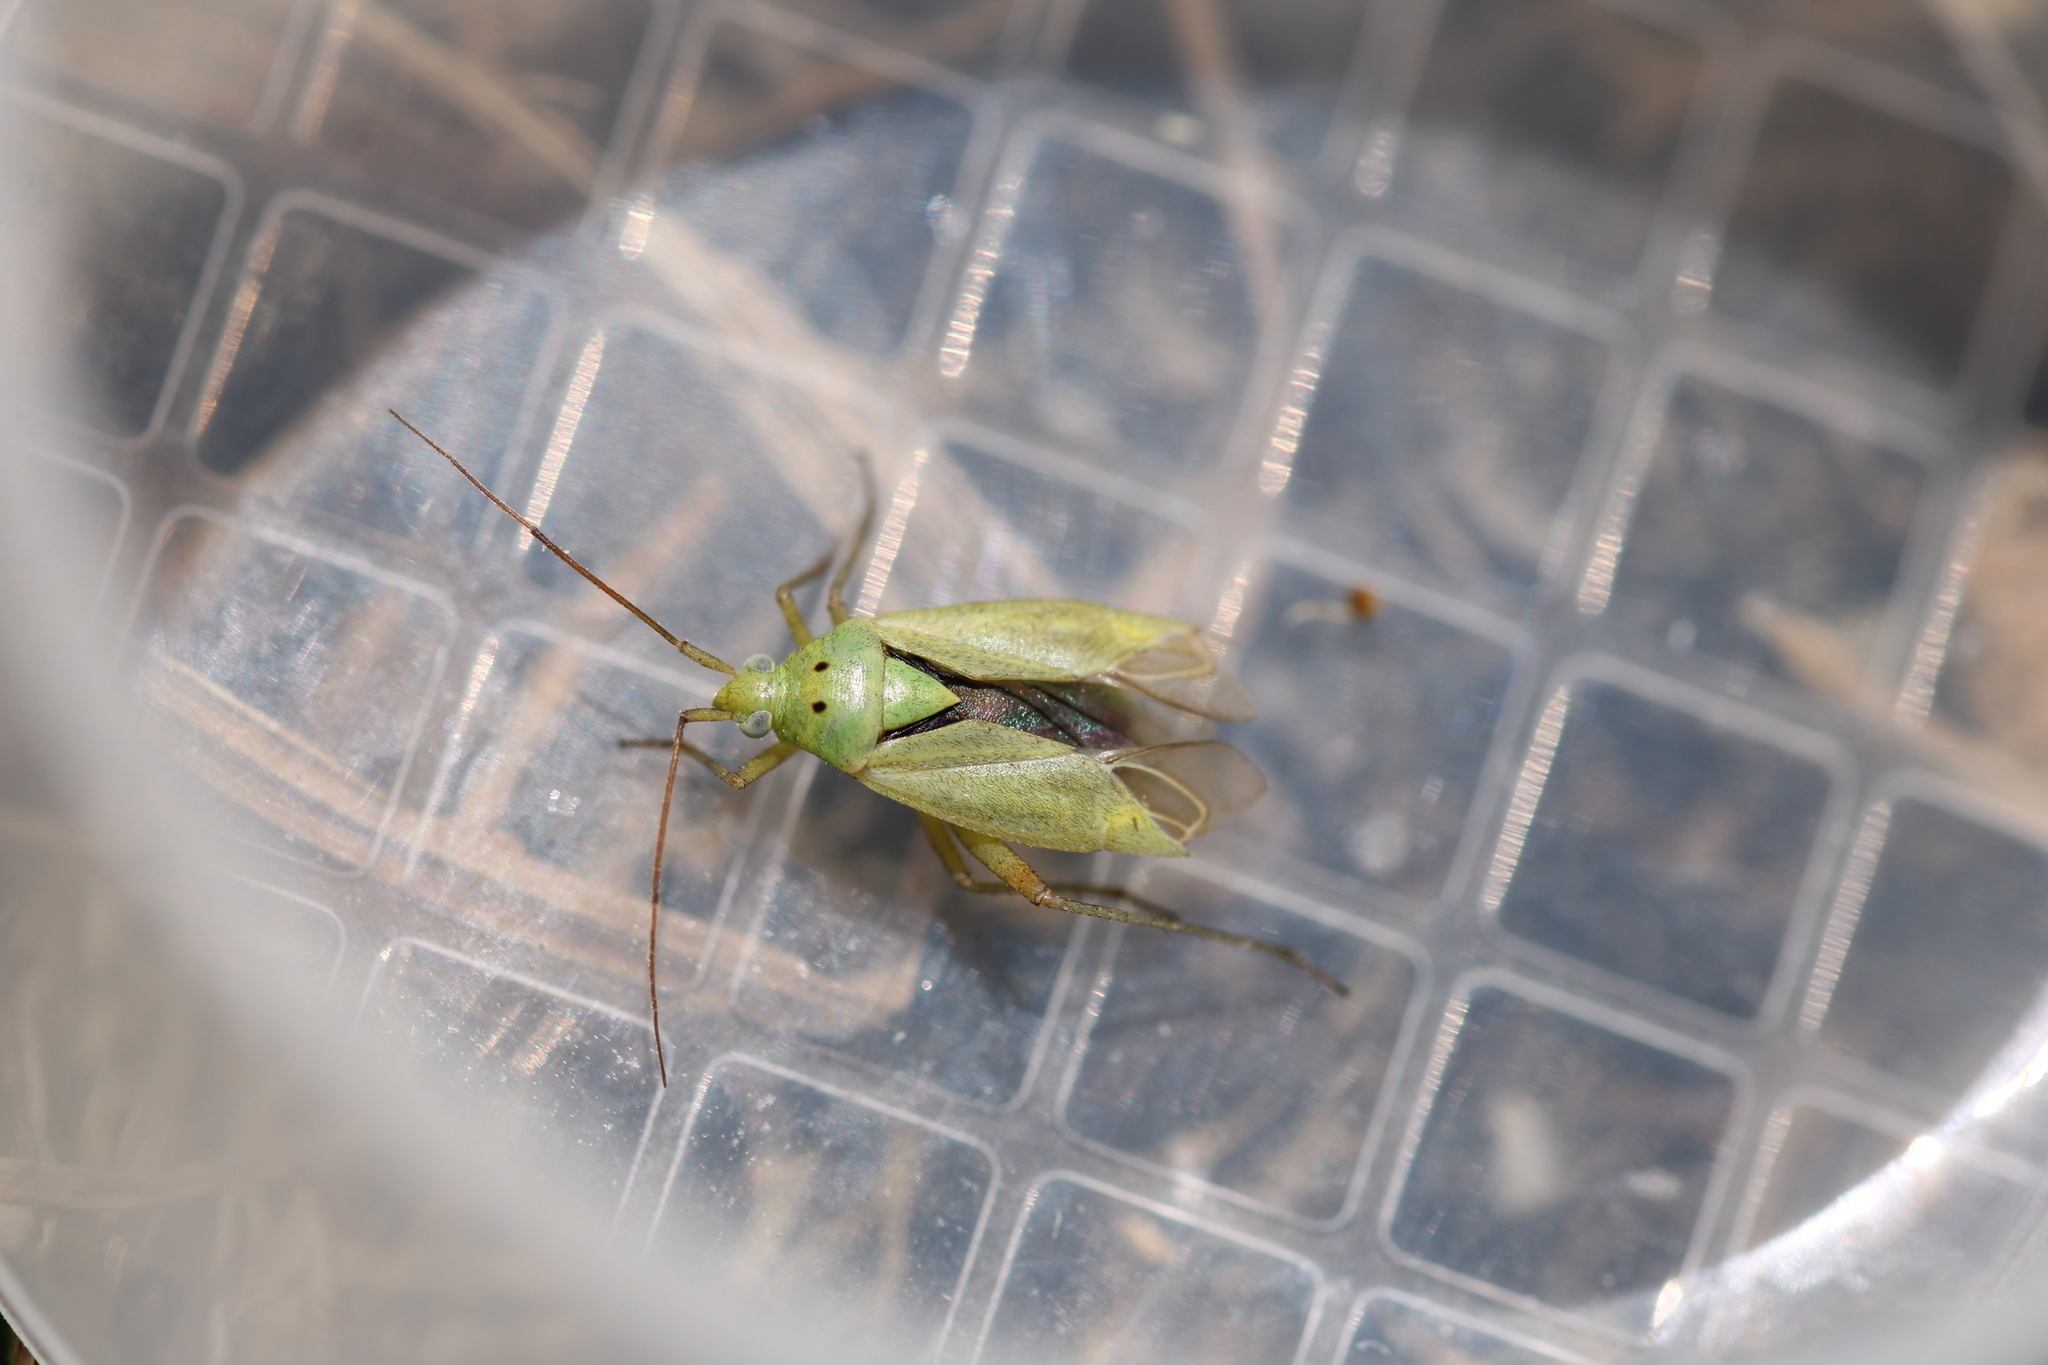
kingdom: Animalia
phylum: Arthropoda
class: Insecta
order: Hemiptera
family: Miridae
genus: Closterotomus
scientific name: Closterotomus norvegicus
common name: Plant bug
